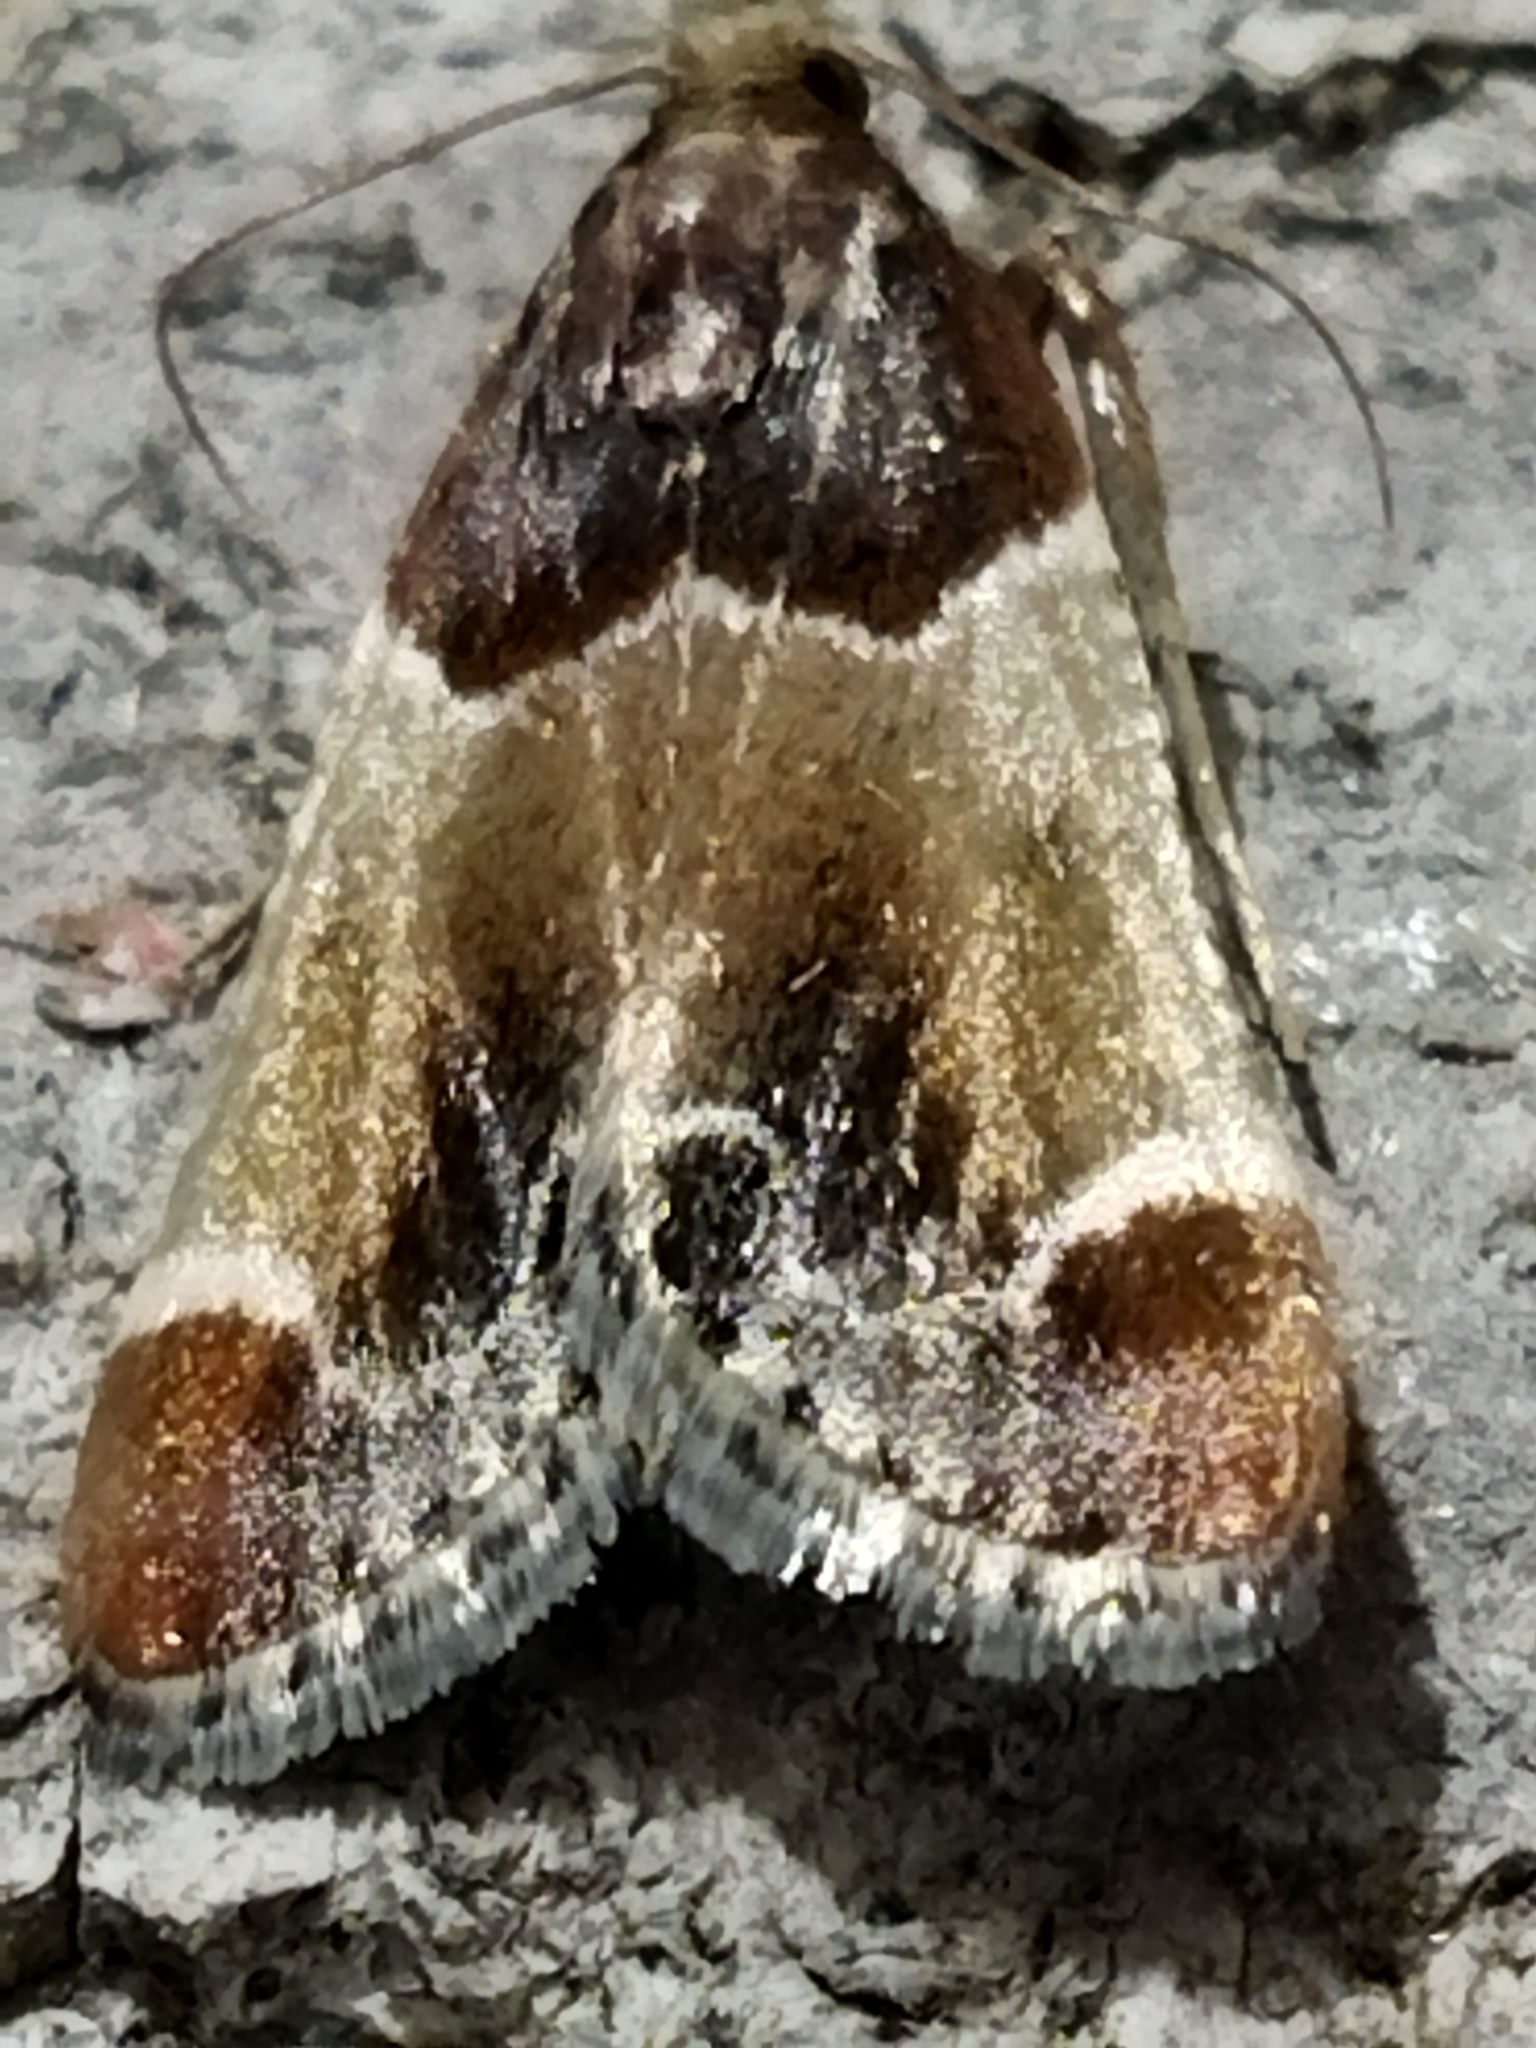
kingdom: Animalia
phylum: Arthropoda
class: Insecta
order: Lepidoptera
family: Pyralidae
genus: Pyralis
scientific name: Pyralis farinalis
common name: Meal moth
